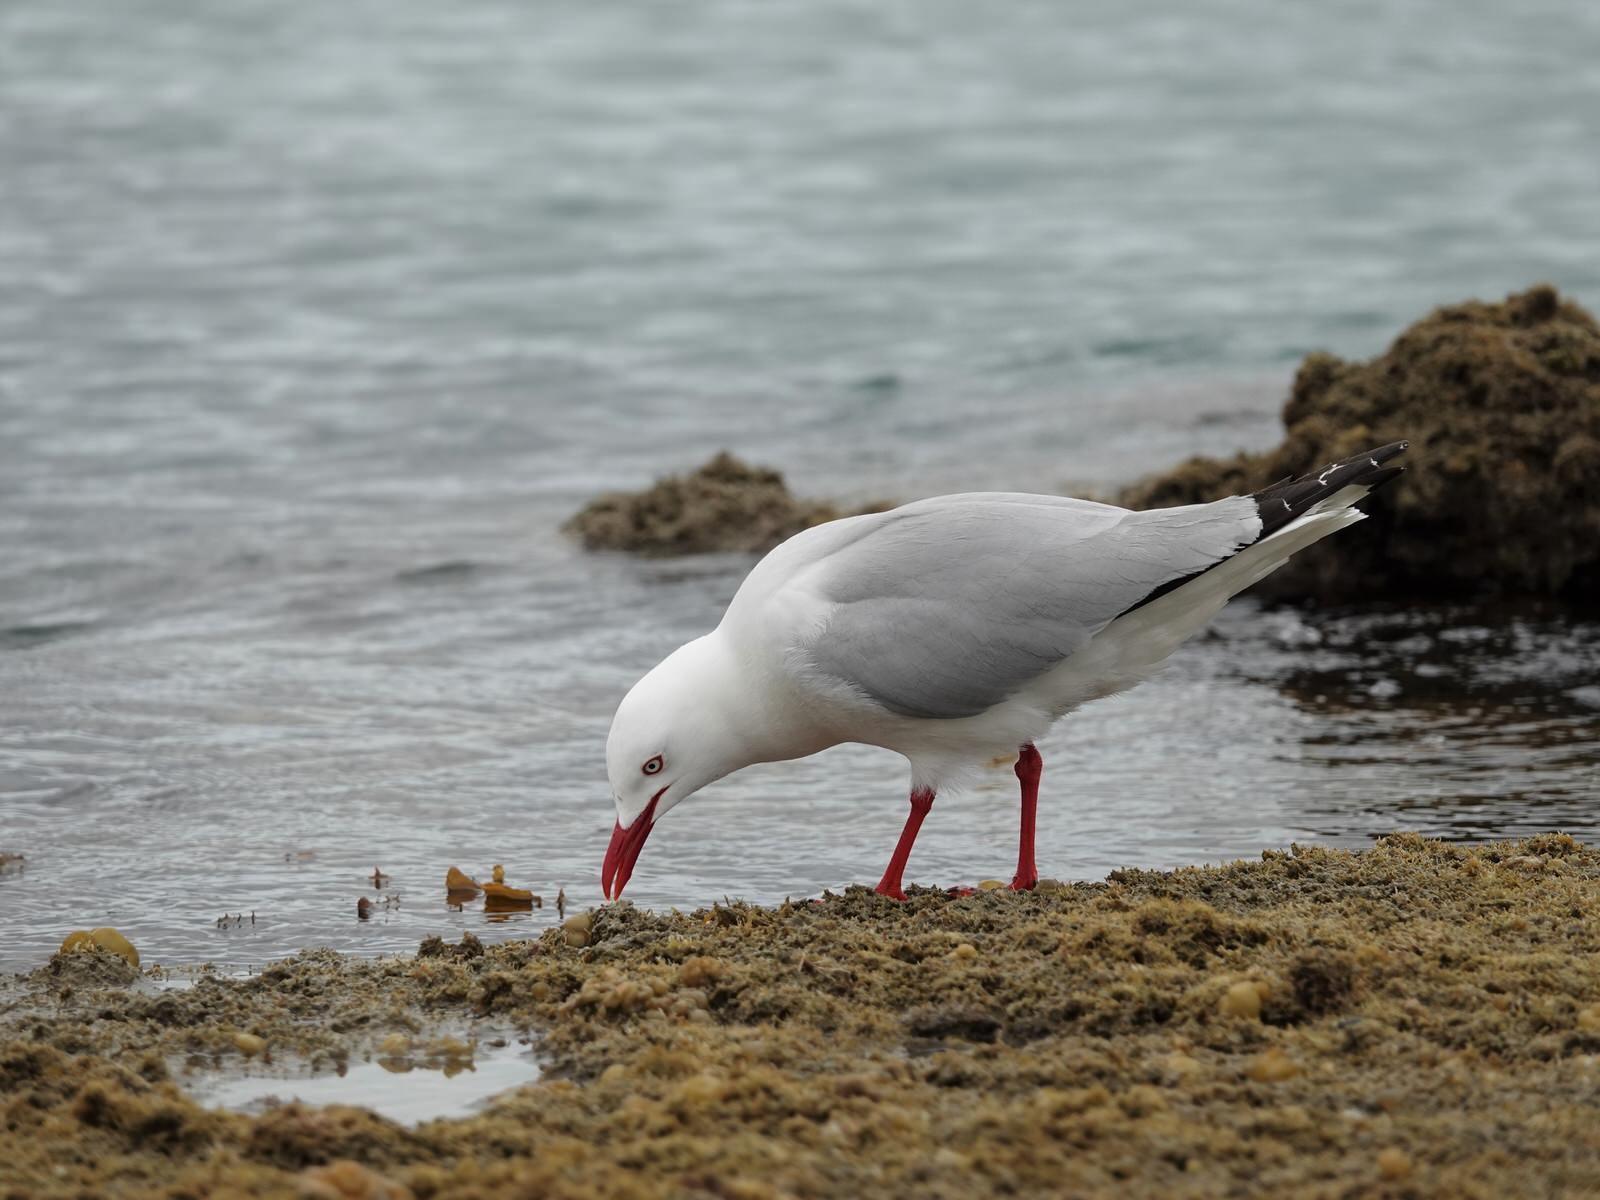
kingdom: Animalia
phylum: Chordata
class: Aves
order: Charadriiformes
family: Laridae
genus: Chroicocephalus
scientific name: Chroicocephalus novaehollandiae
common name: Silver gull
